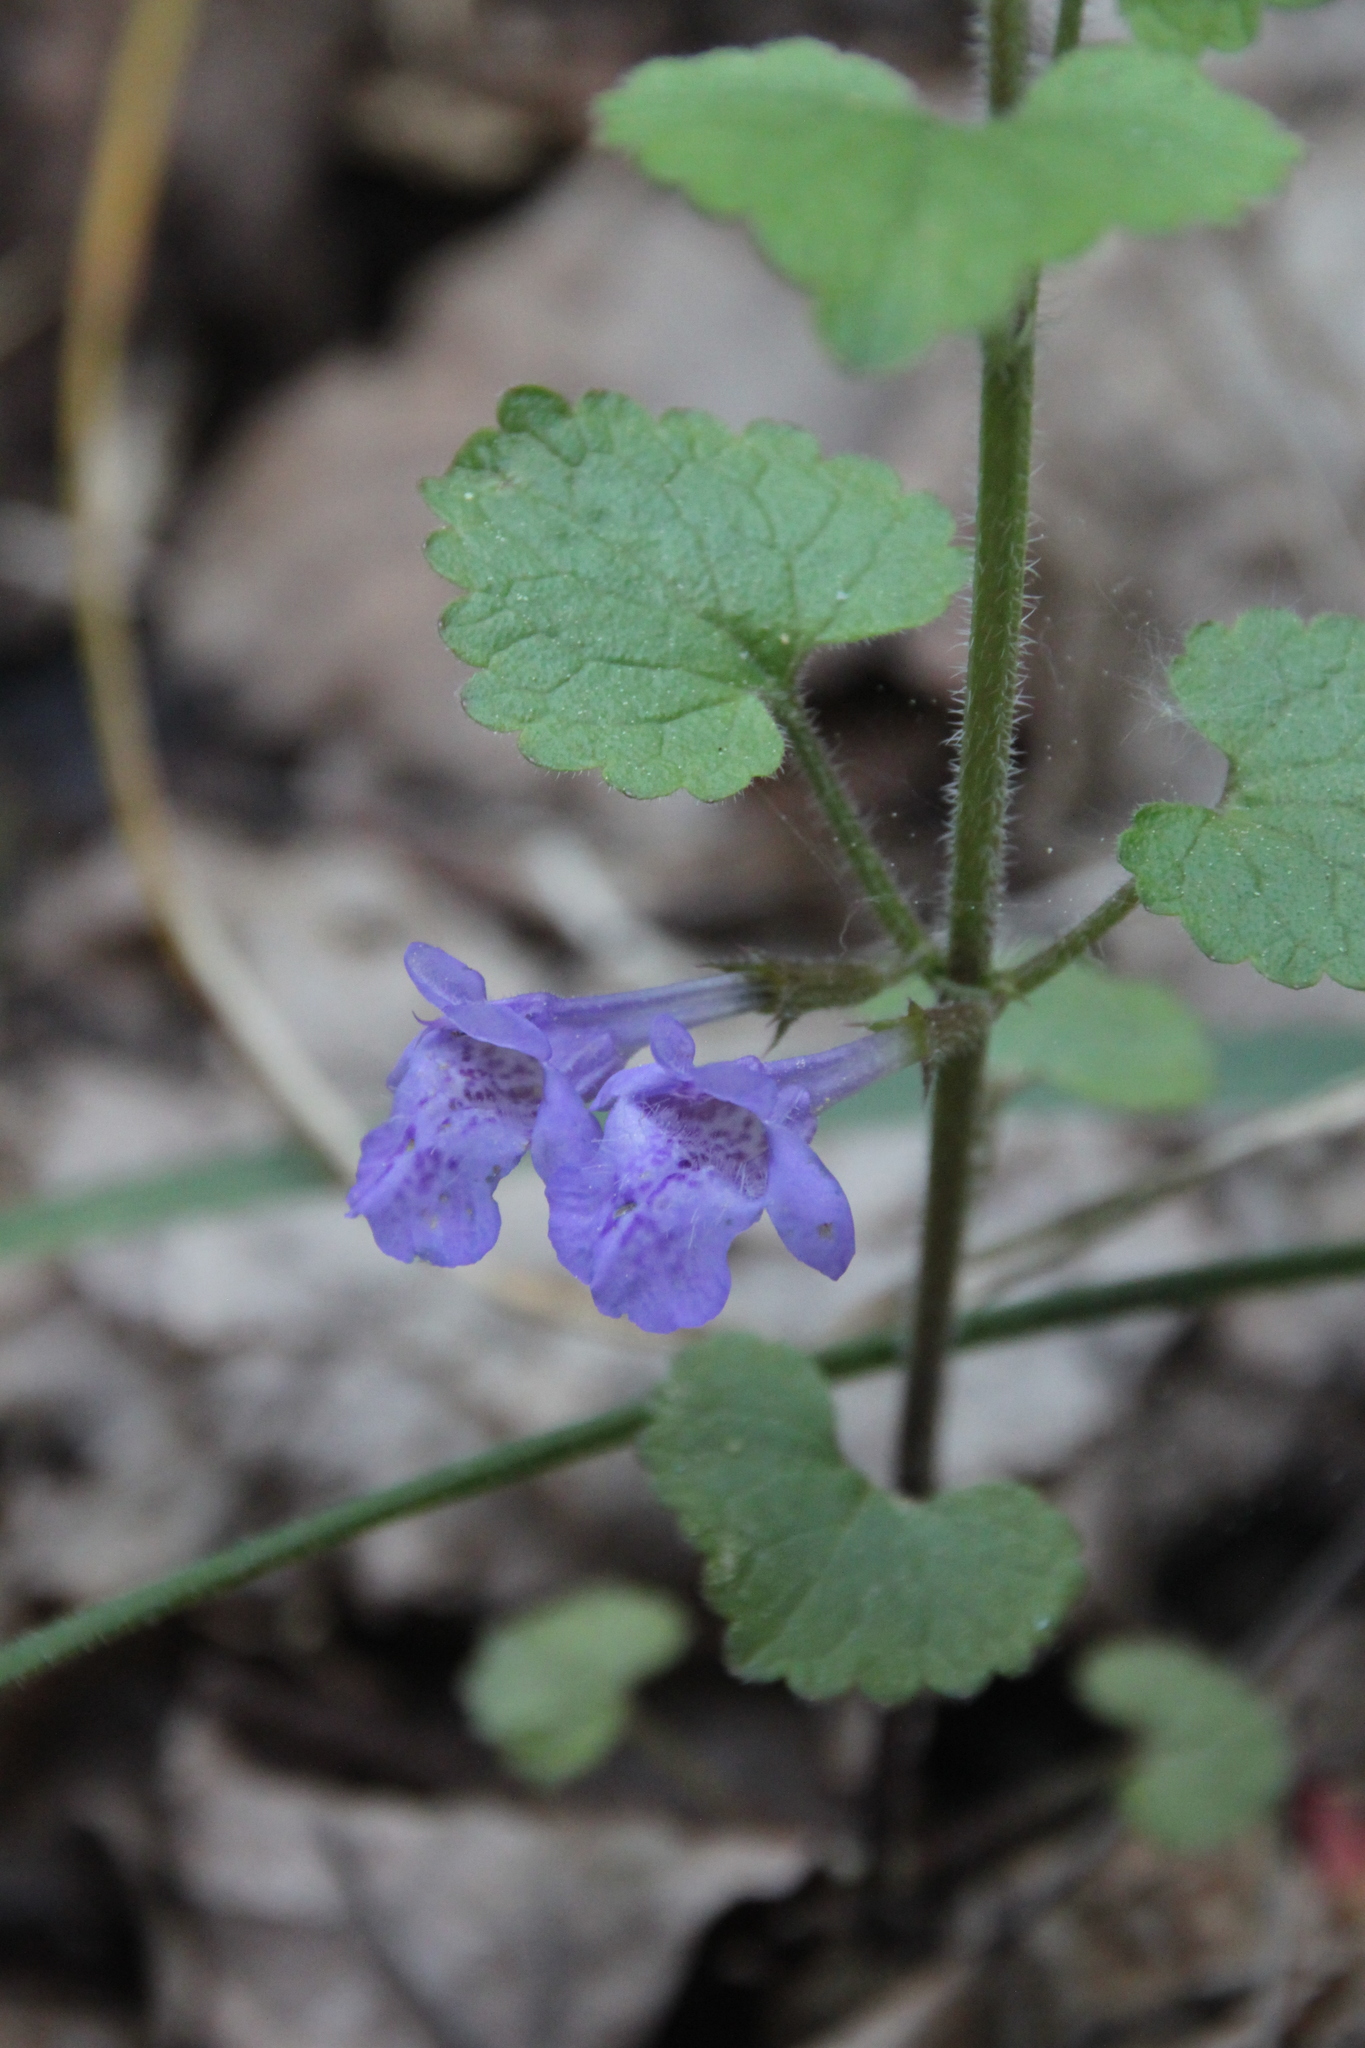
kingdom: Plantae
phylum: Tracheophyta
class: Magnoliopsida
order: Lamiales
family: Lamiaceae
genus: Glechoma
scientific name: Glechoma hederacea
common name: Ground ivy
